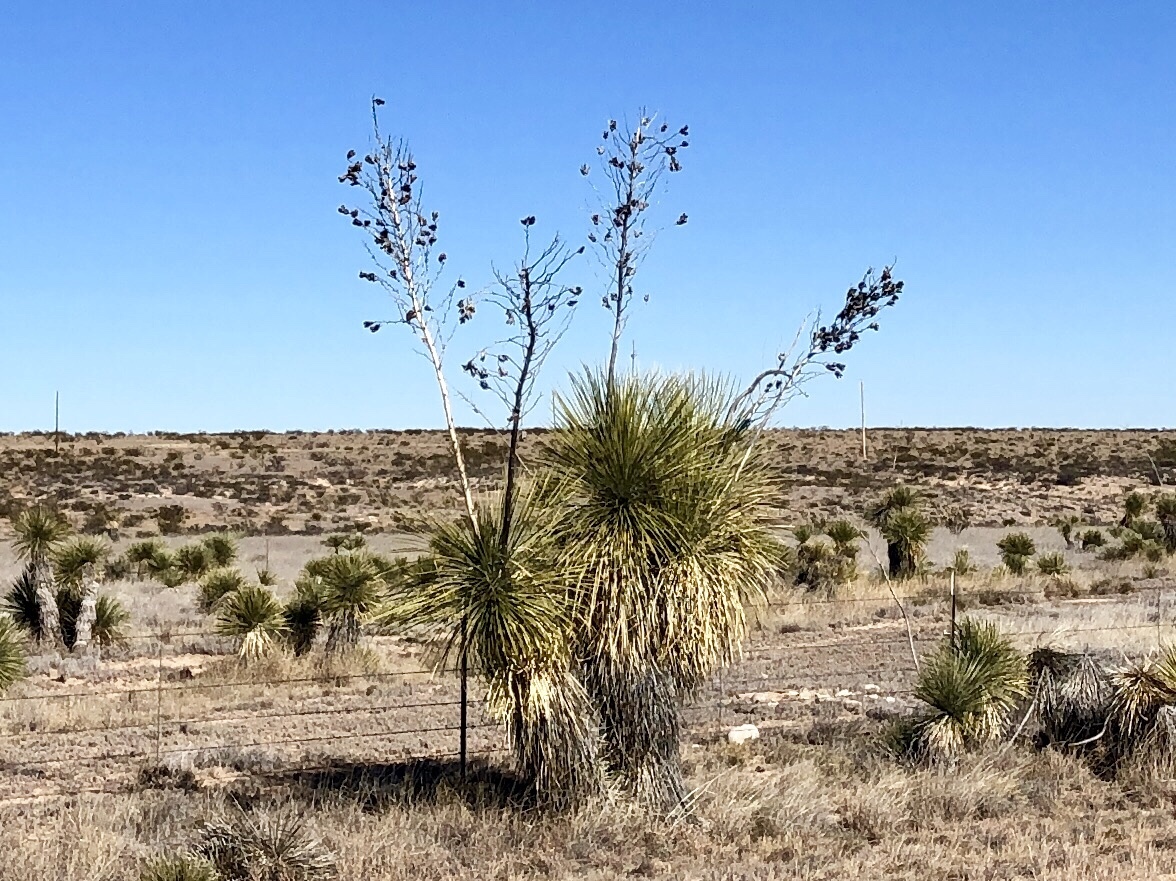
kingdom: Plantae
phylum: Tracheophyta
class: Liliopsida
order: Asparagales
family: Asparagaceae
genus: Yucca
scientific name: Yucca elata
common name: Palmella
